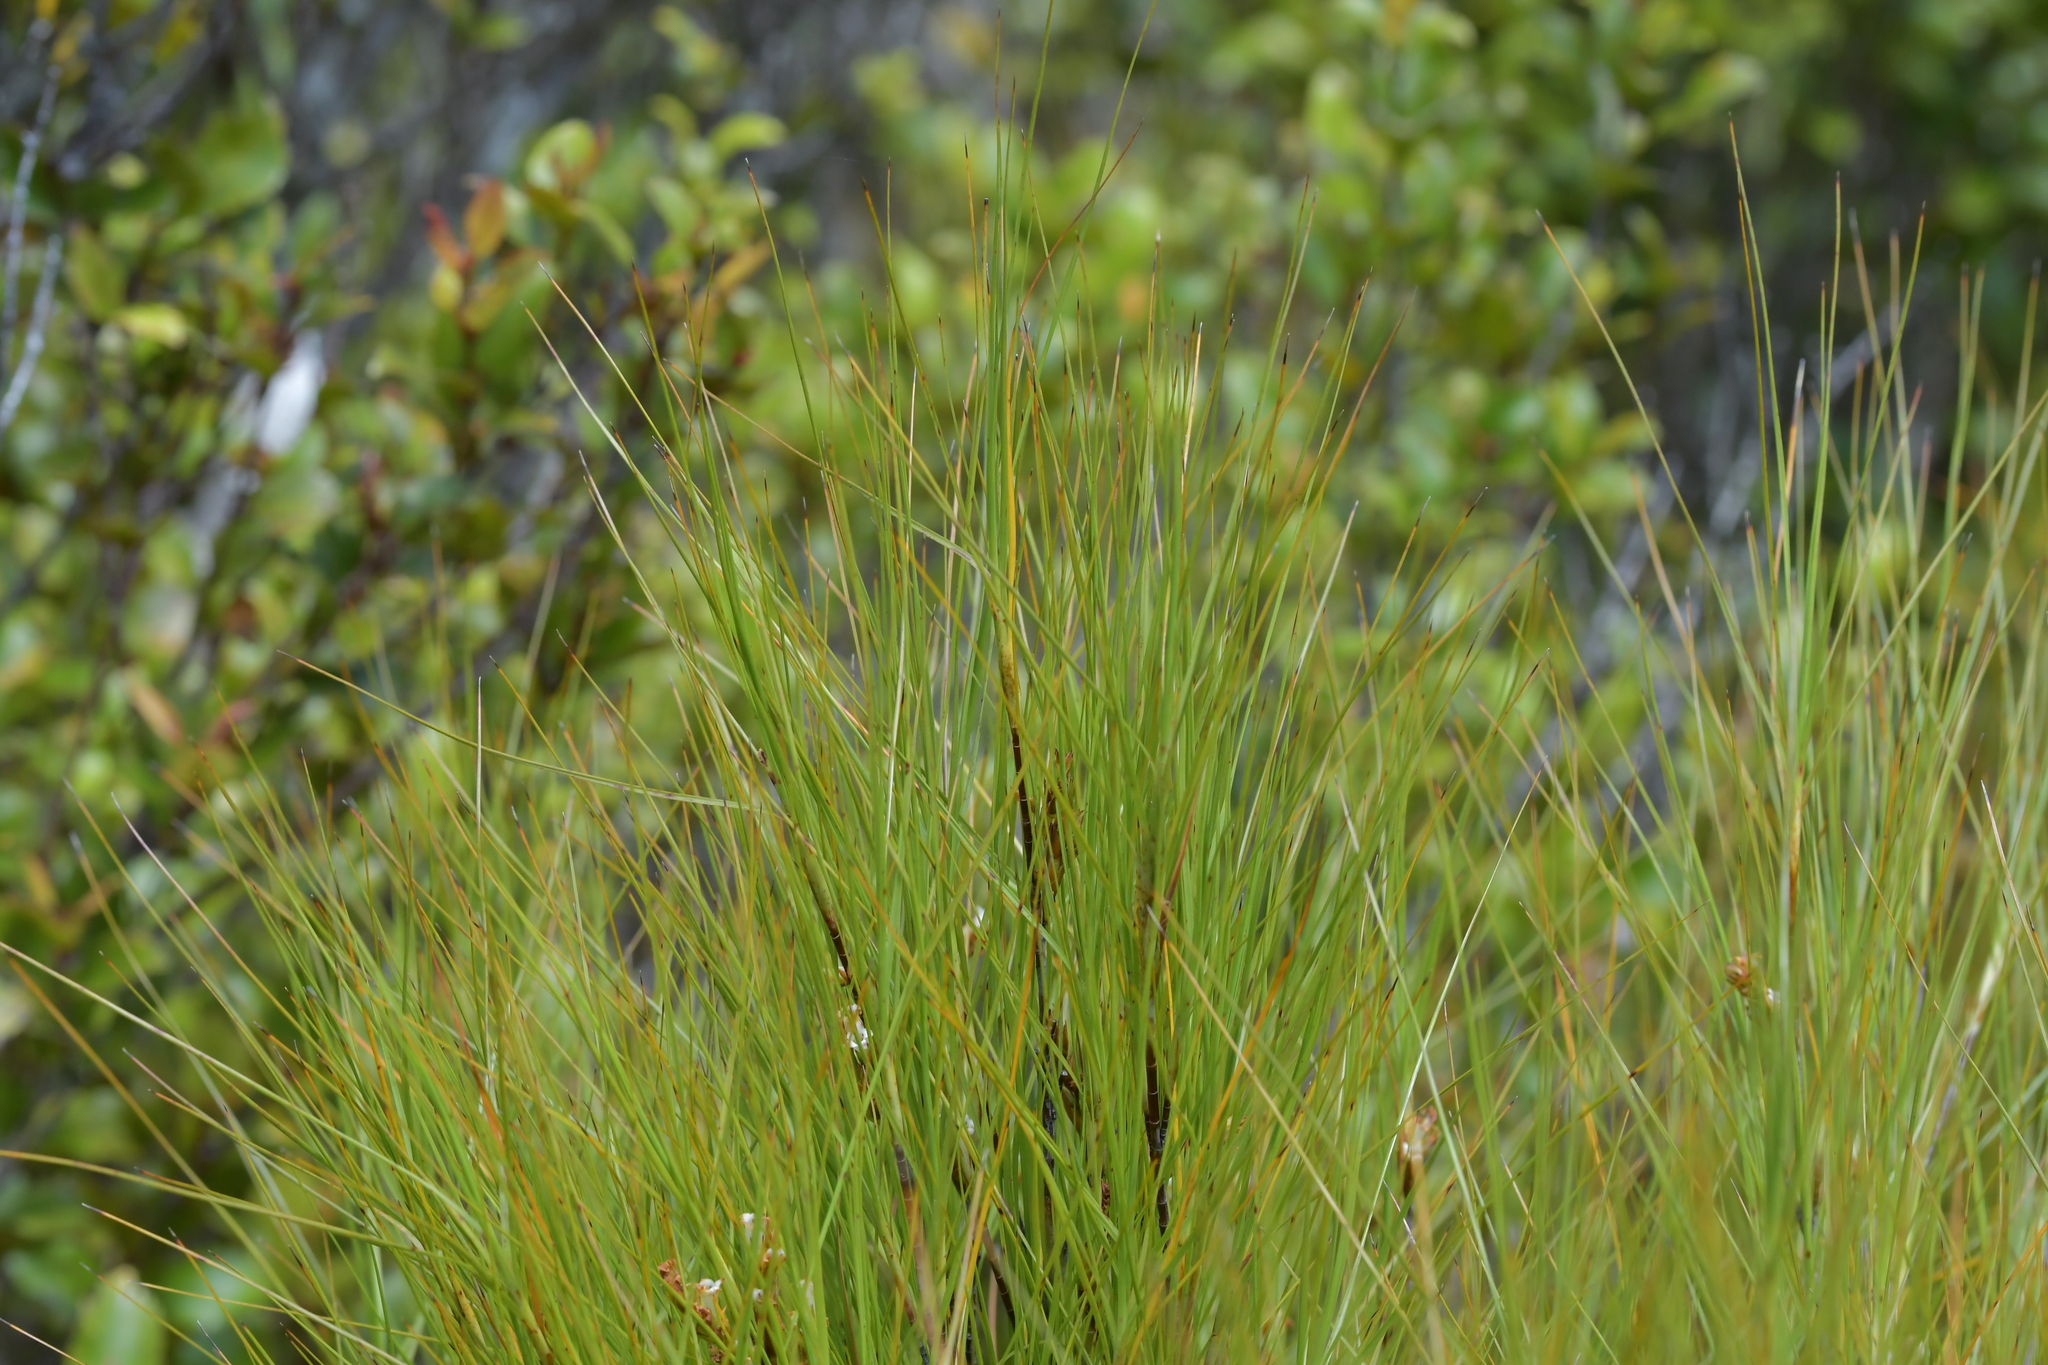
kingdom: Plantae
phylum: Tracheophyta
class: Magnoliopsida
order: Ericales
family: Ericaceae
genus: Dracophyllum
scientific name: Dracophyllum filifolium
